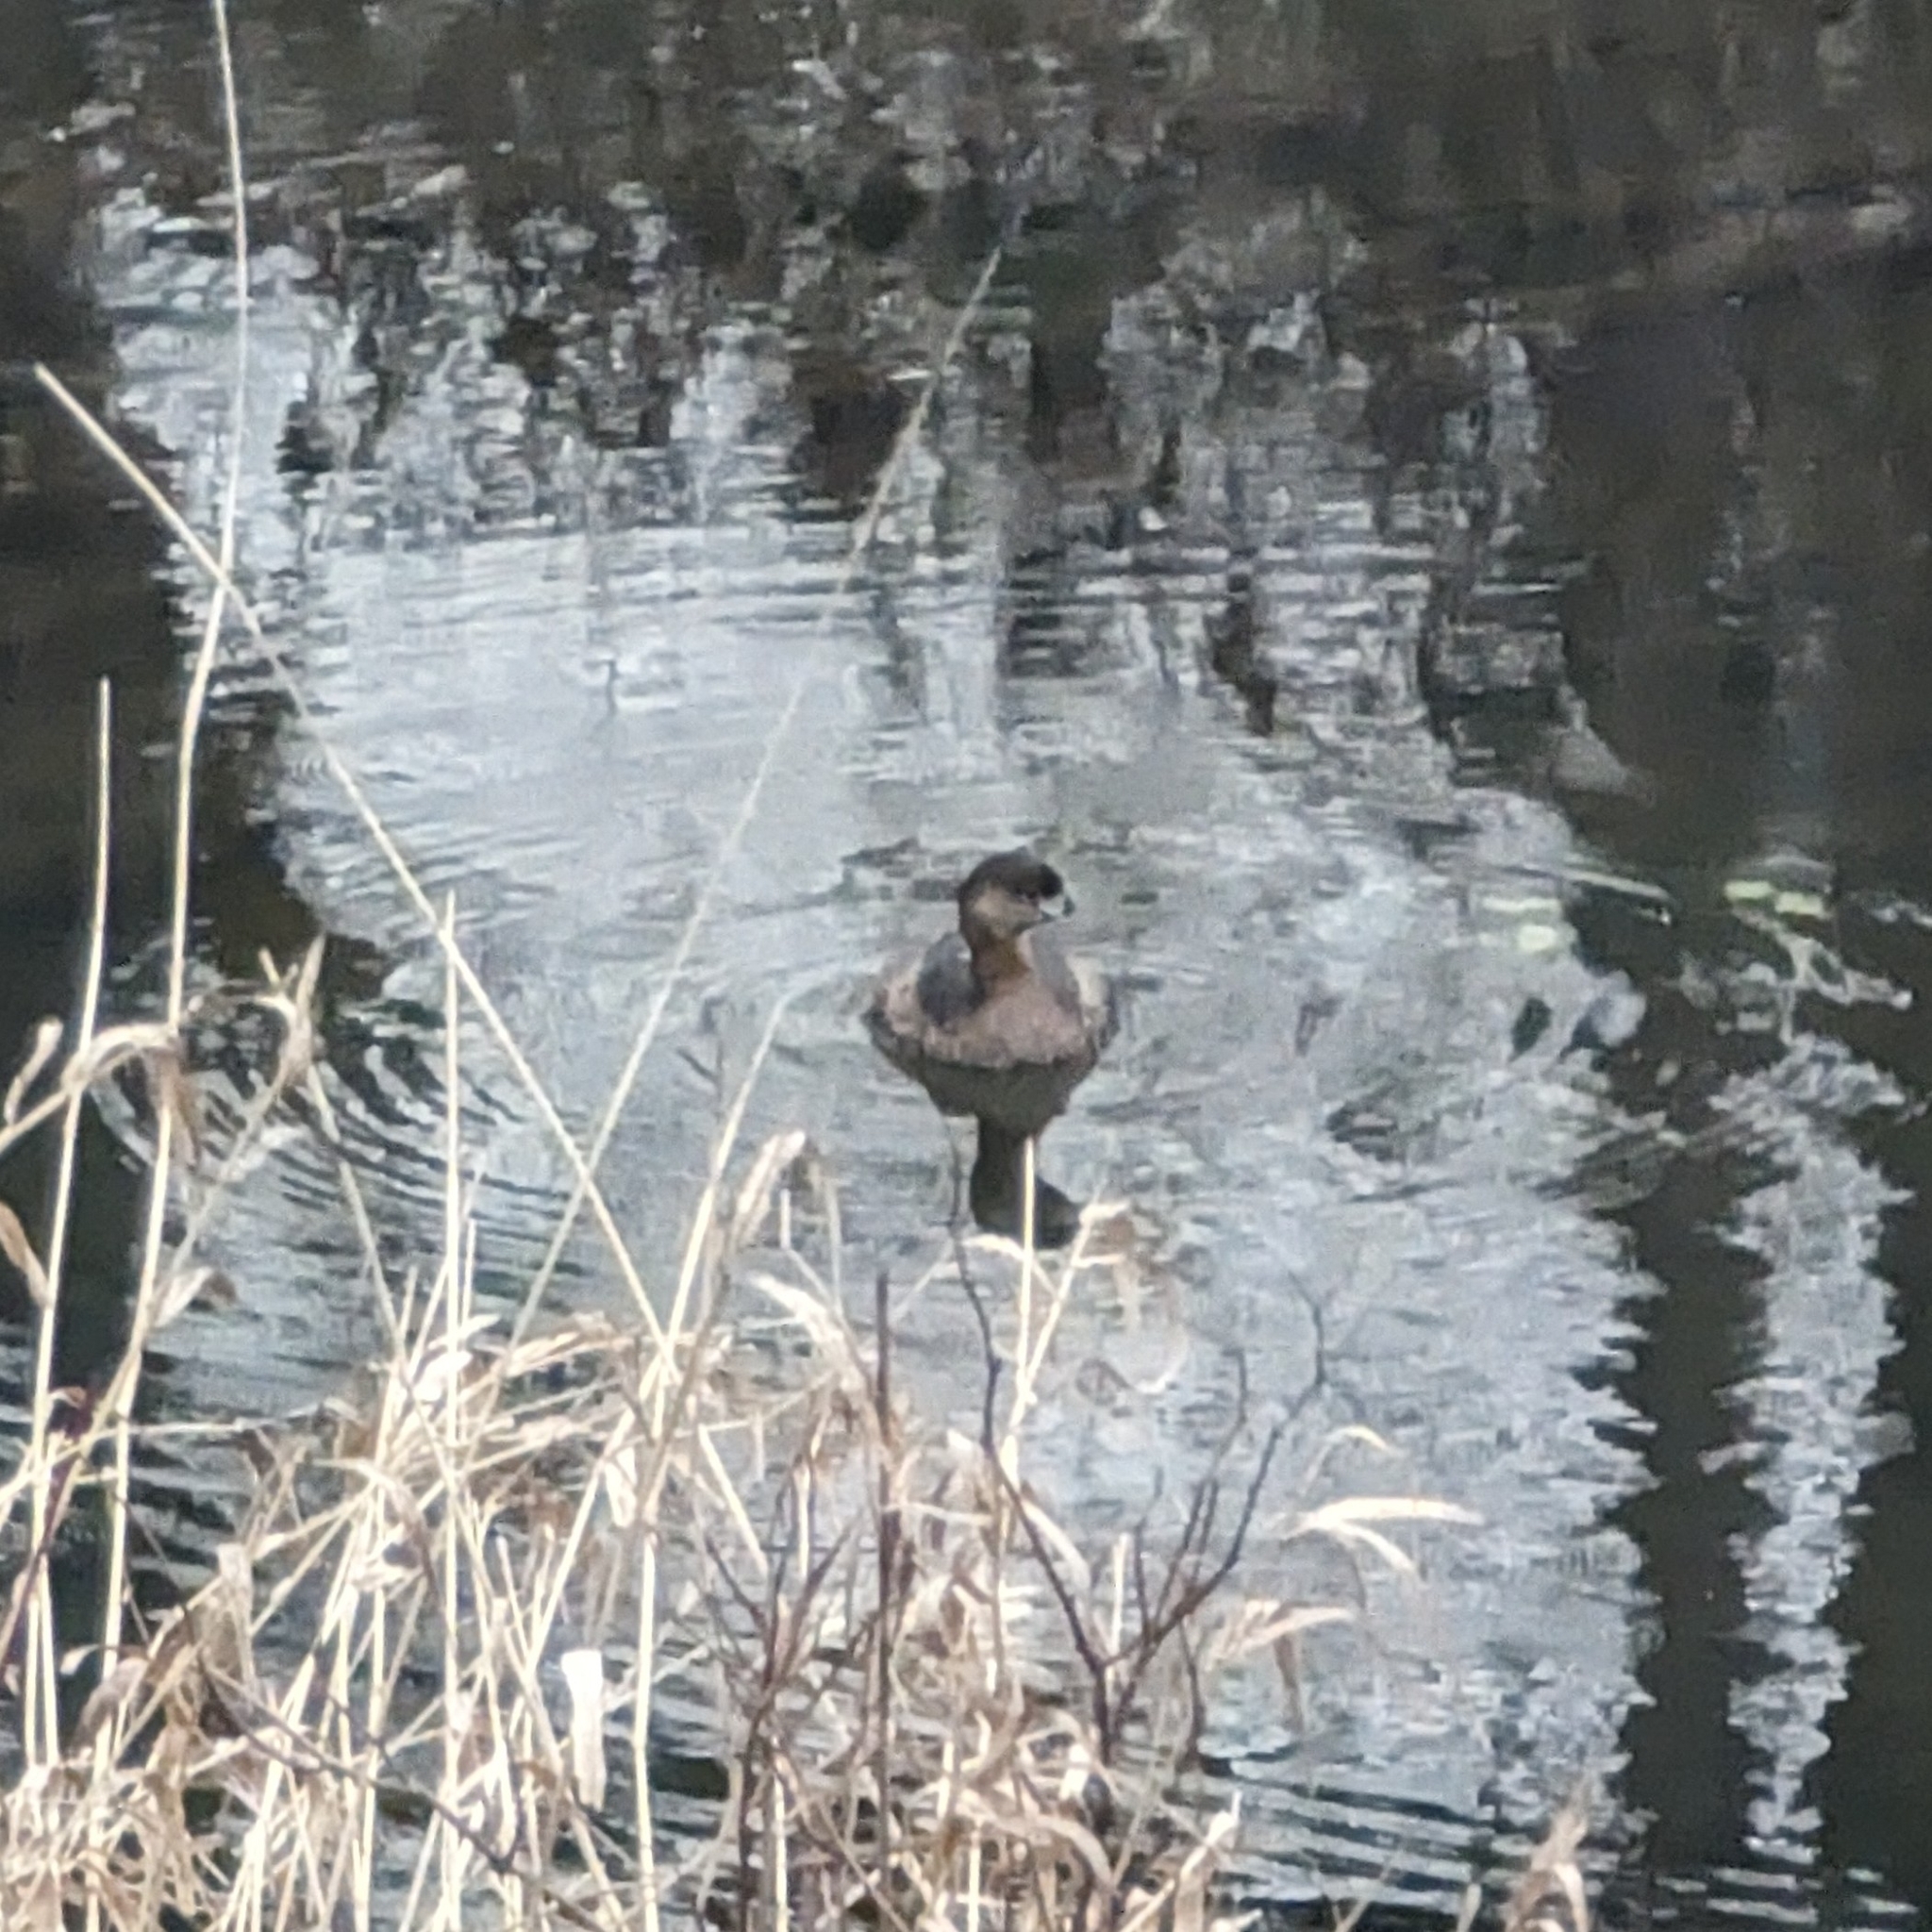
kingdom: Animalia
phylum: Chordata
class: Aves
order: Podicipediformes
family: Podicipedidae
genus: Podilymbus
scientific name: Podilymbus podiceps
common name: Pied-billed grebe
